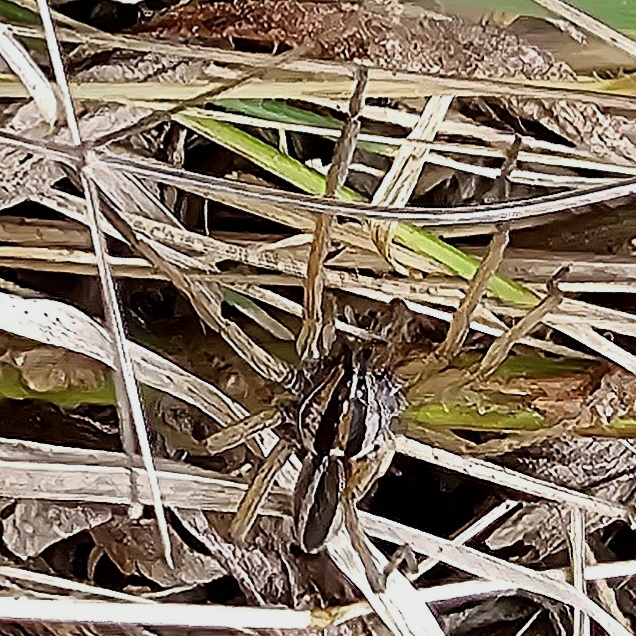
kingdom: Animalia
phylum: Arthropoda
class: Arachnida
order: Araneae
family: Lycosidae
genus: Rabidosa
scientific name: Rabidosa punctulata
